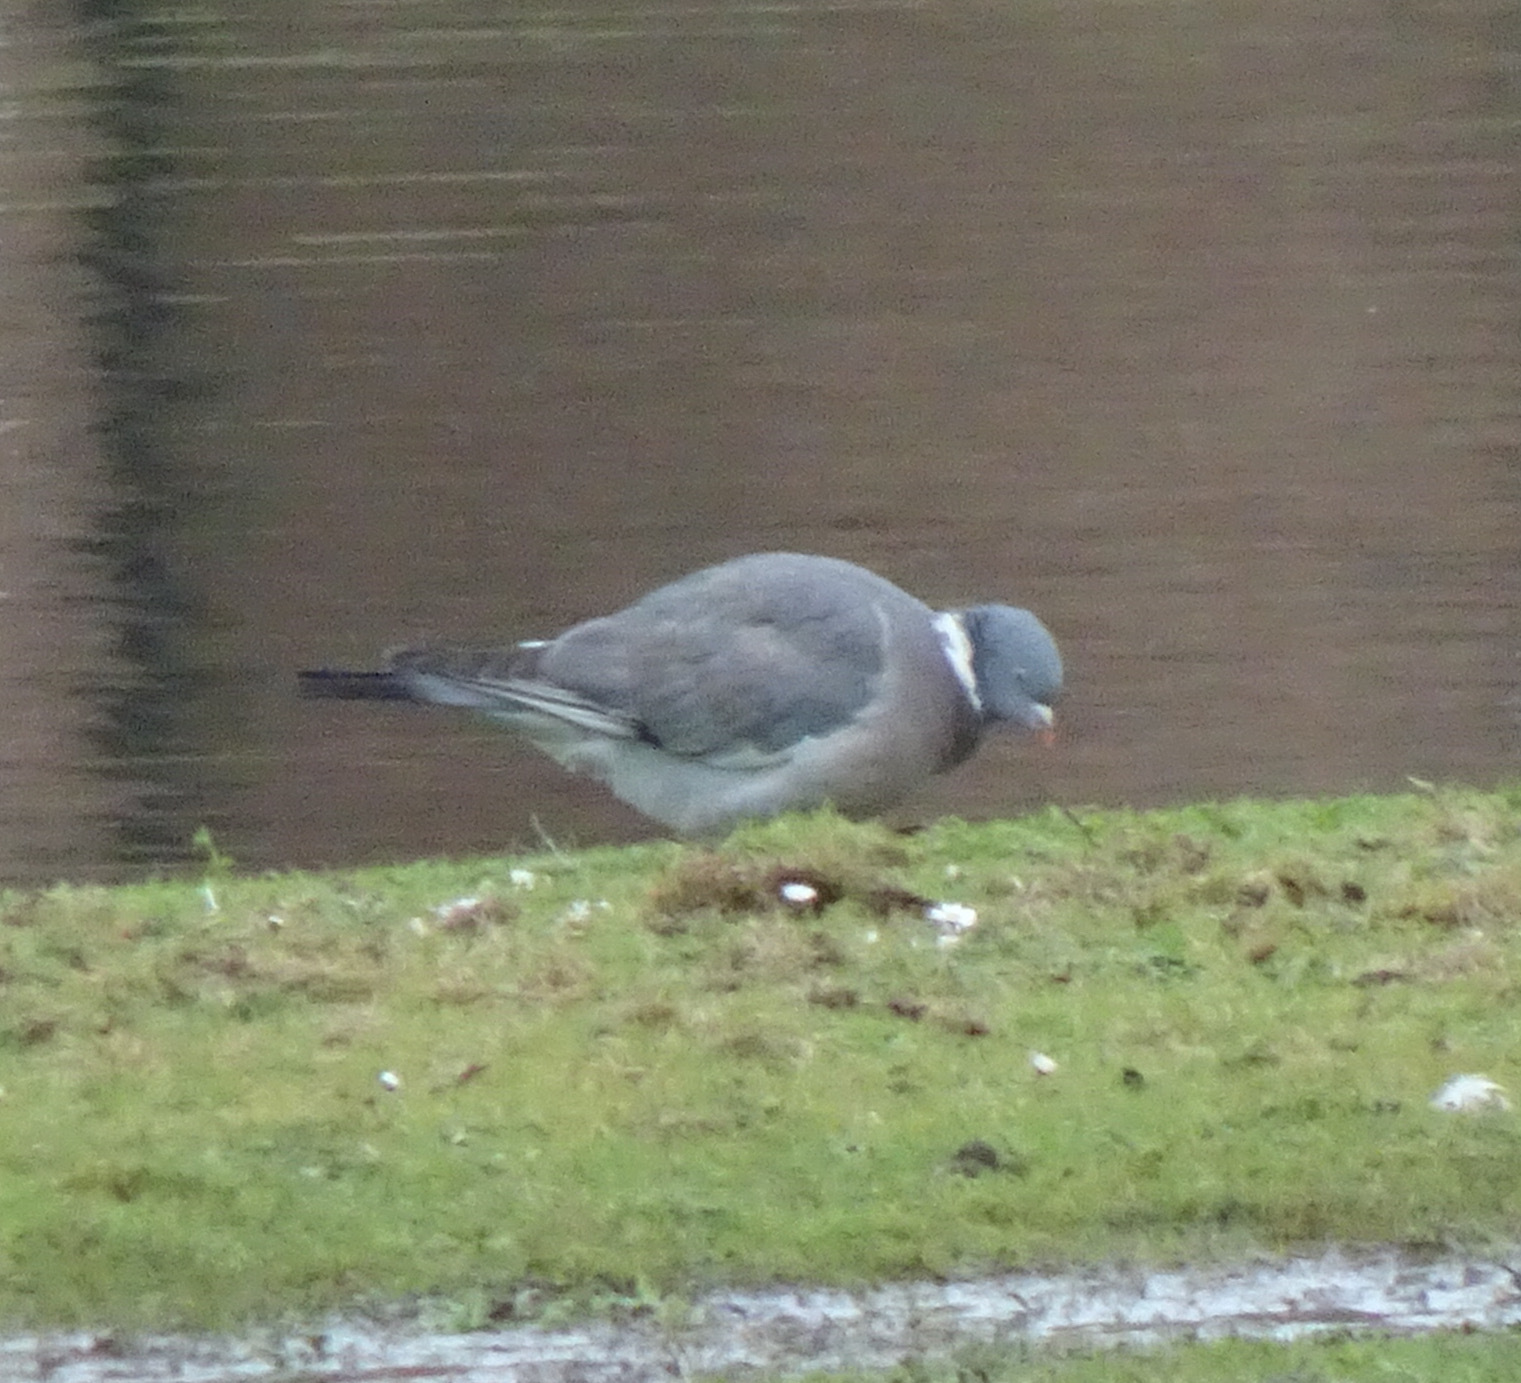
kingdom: Animalia
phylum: Chordata
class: Aves
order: Columbiformes
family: Columbidae
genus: Columba
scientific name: Columba palumbus
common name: Common wood pigeon
